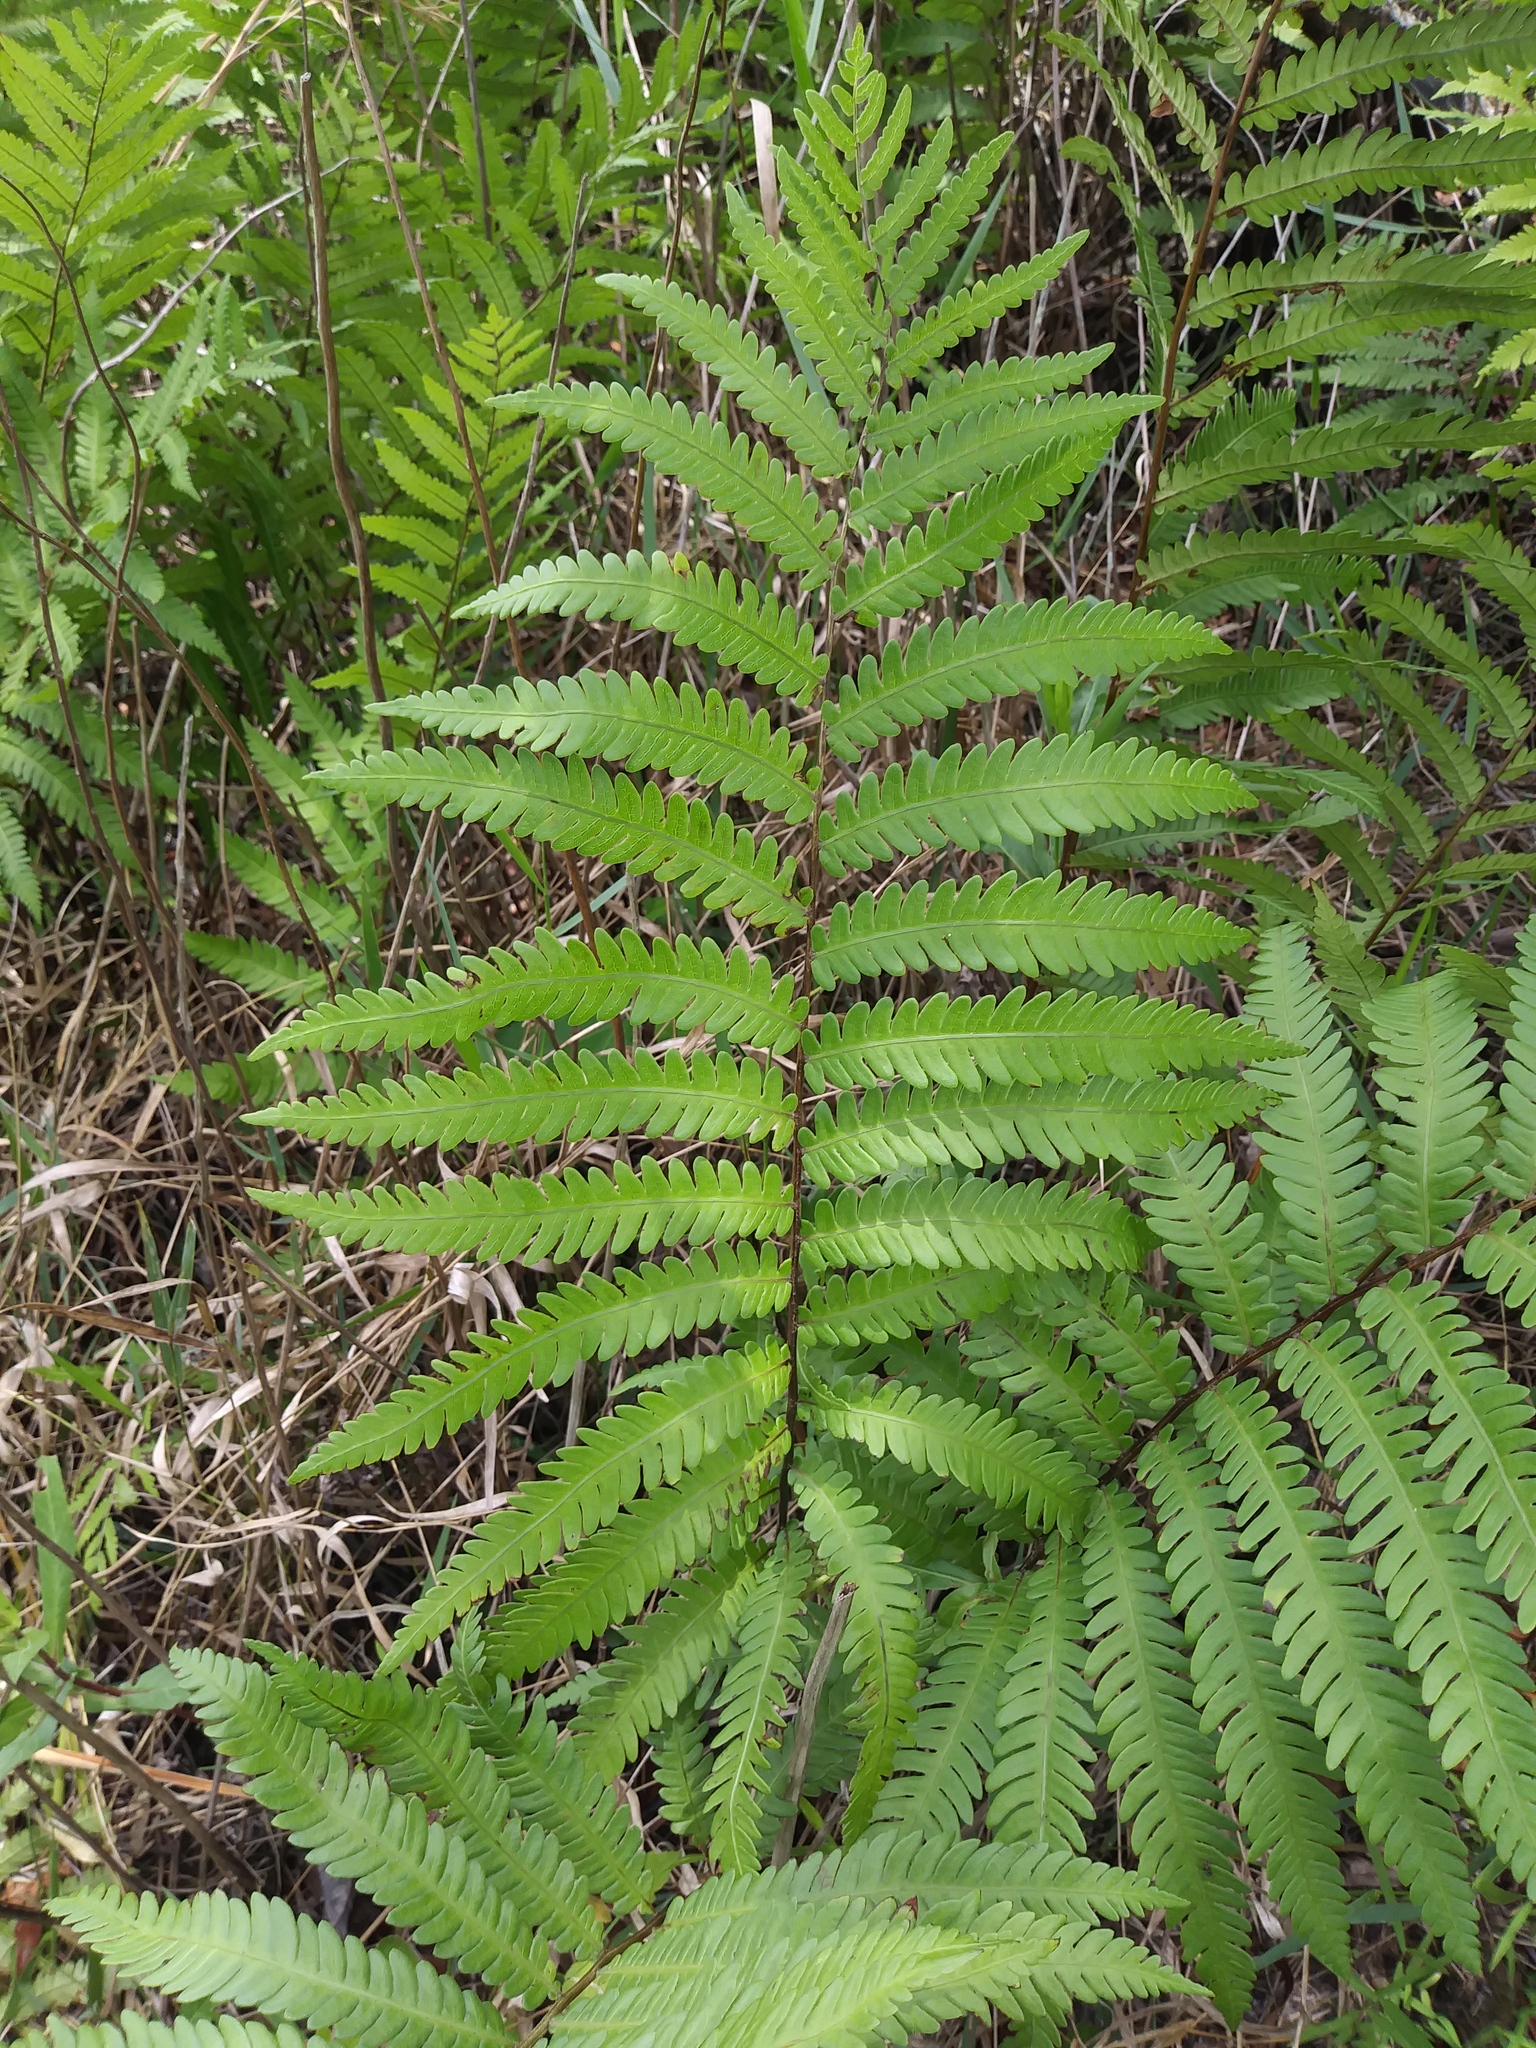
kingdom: Plantae
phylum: Tracheophyta
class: Polypodiopsida
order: Polypodiales
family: Blechnaceae
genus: Anchistea
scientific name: Anchistea virginica
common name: Virginia chain fern
